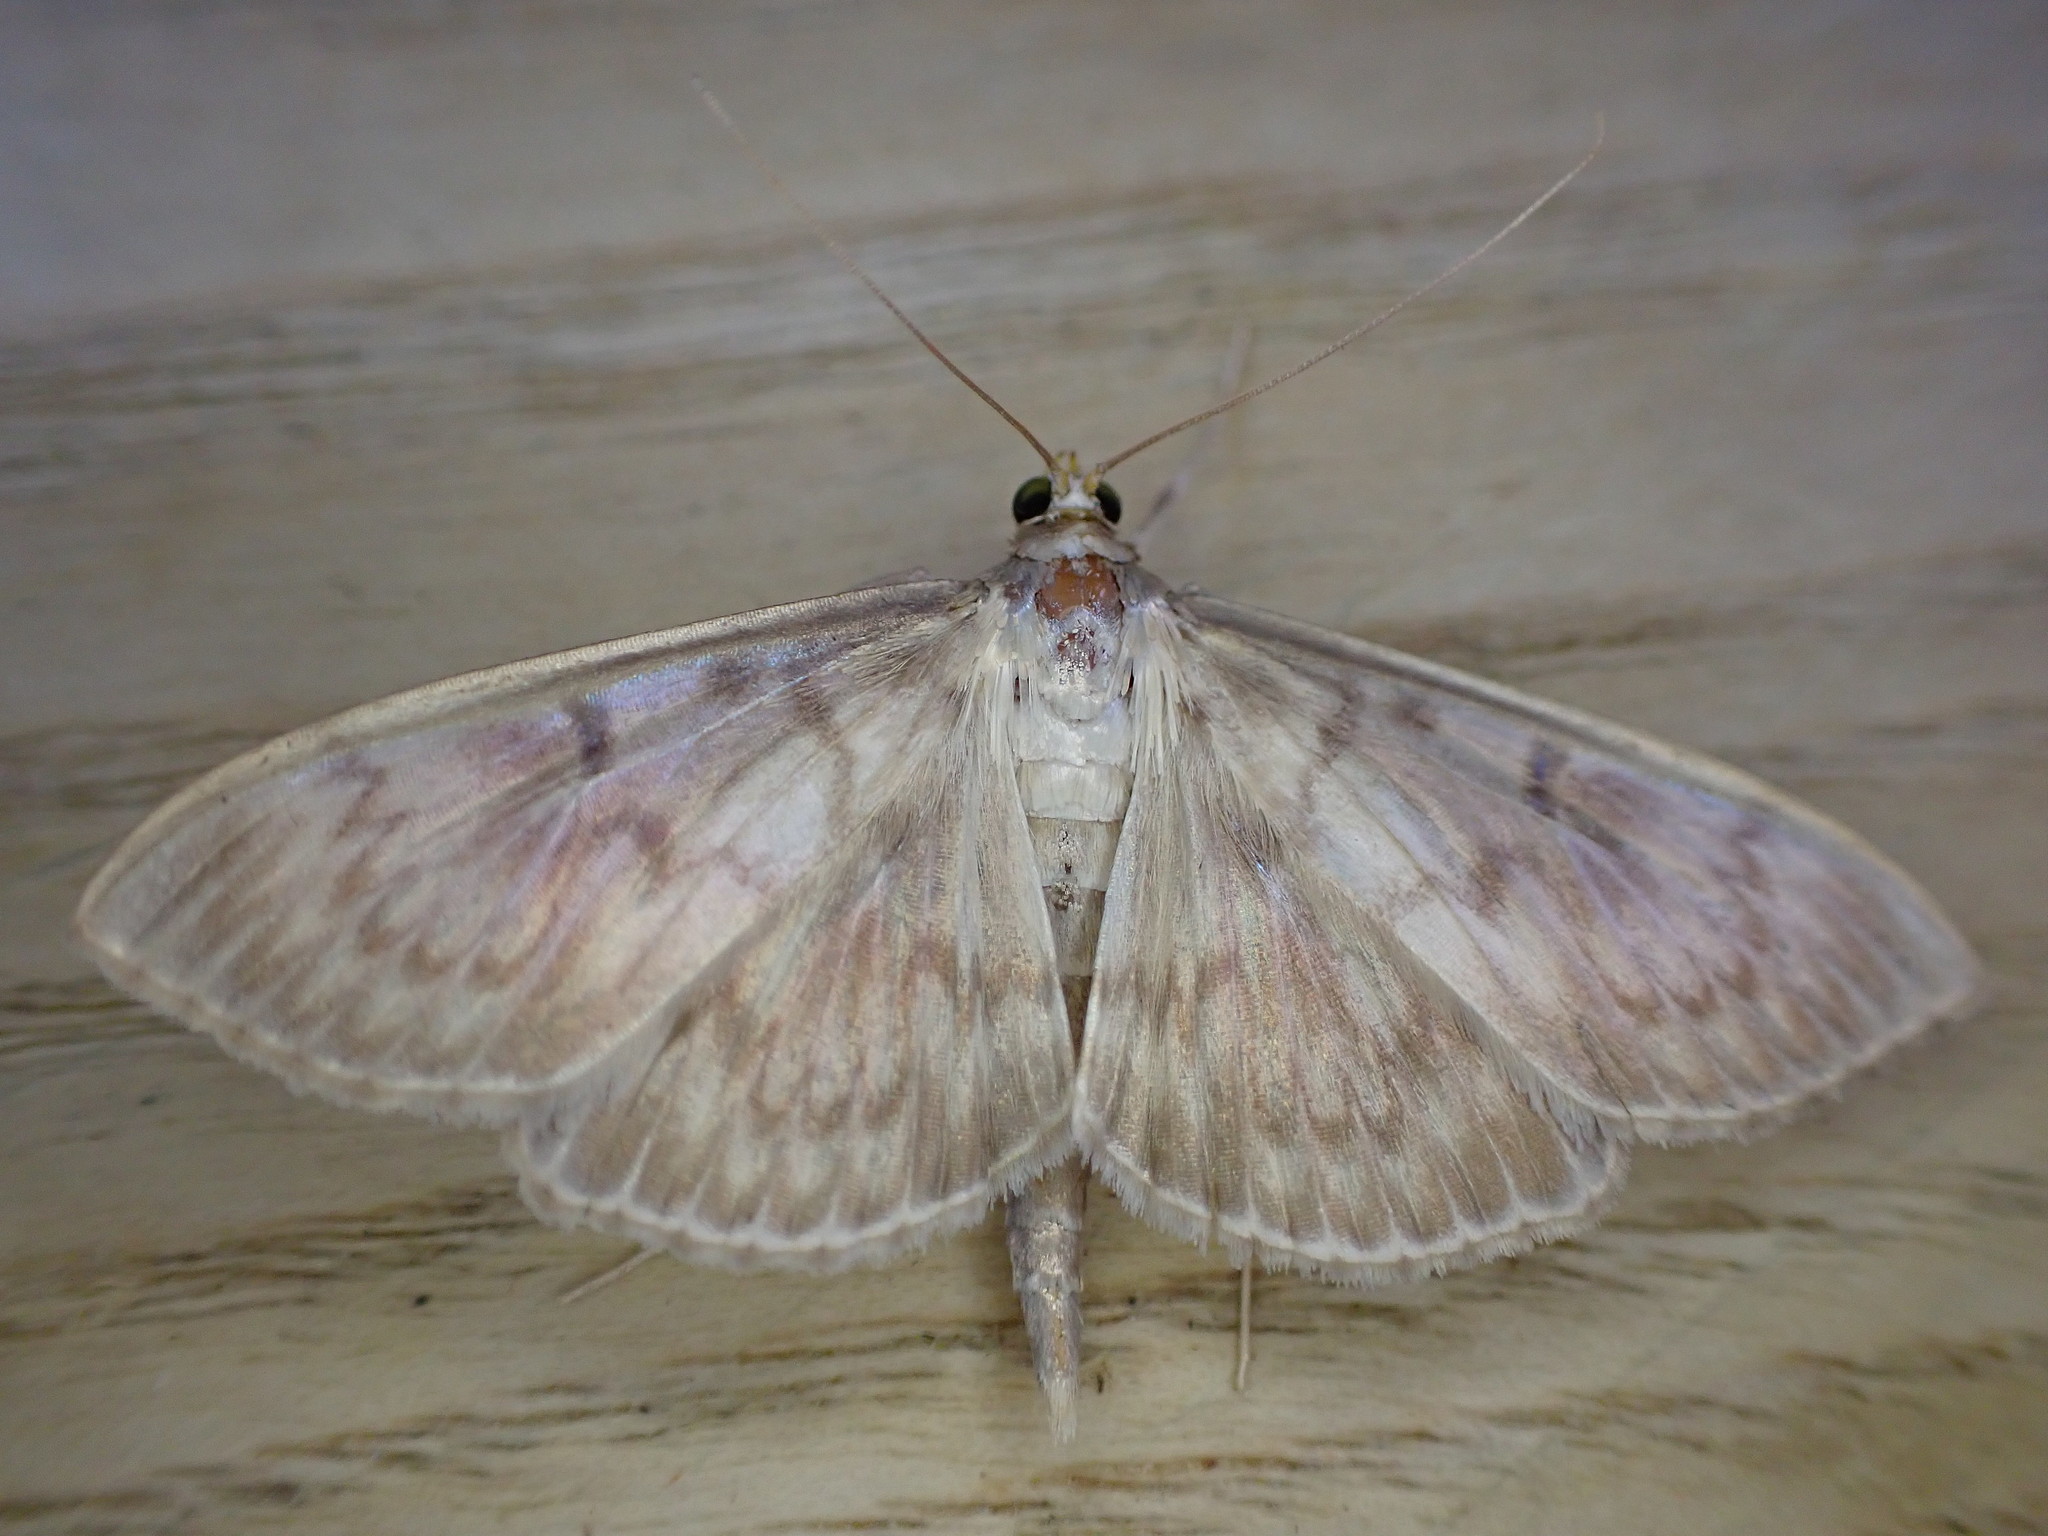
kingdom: Animalia
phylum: Arthropoda
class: Insecta
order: Lepidoptera
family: Crambidae
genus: Patania
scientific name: Patania ruralis
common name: Mother of pearl
